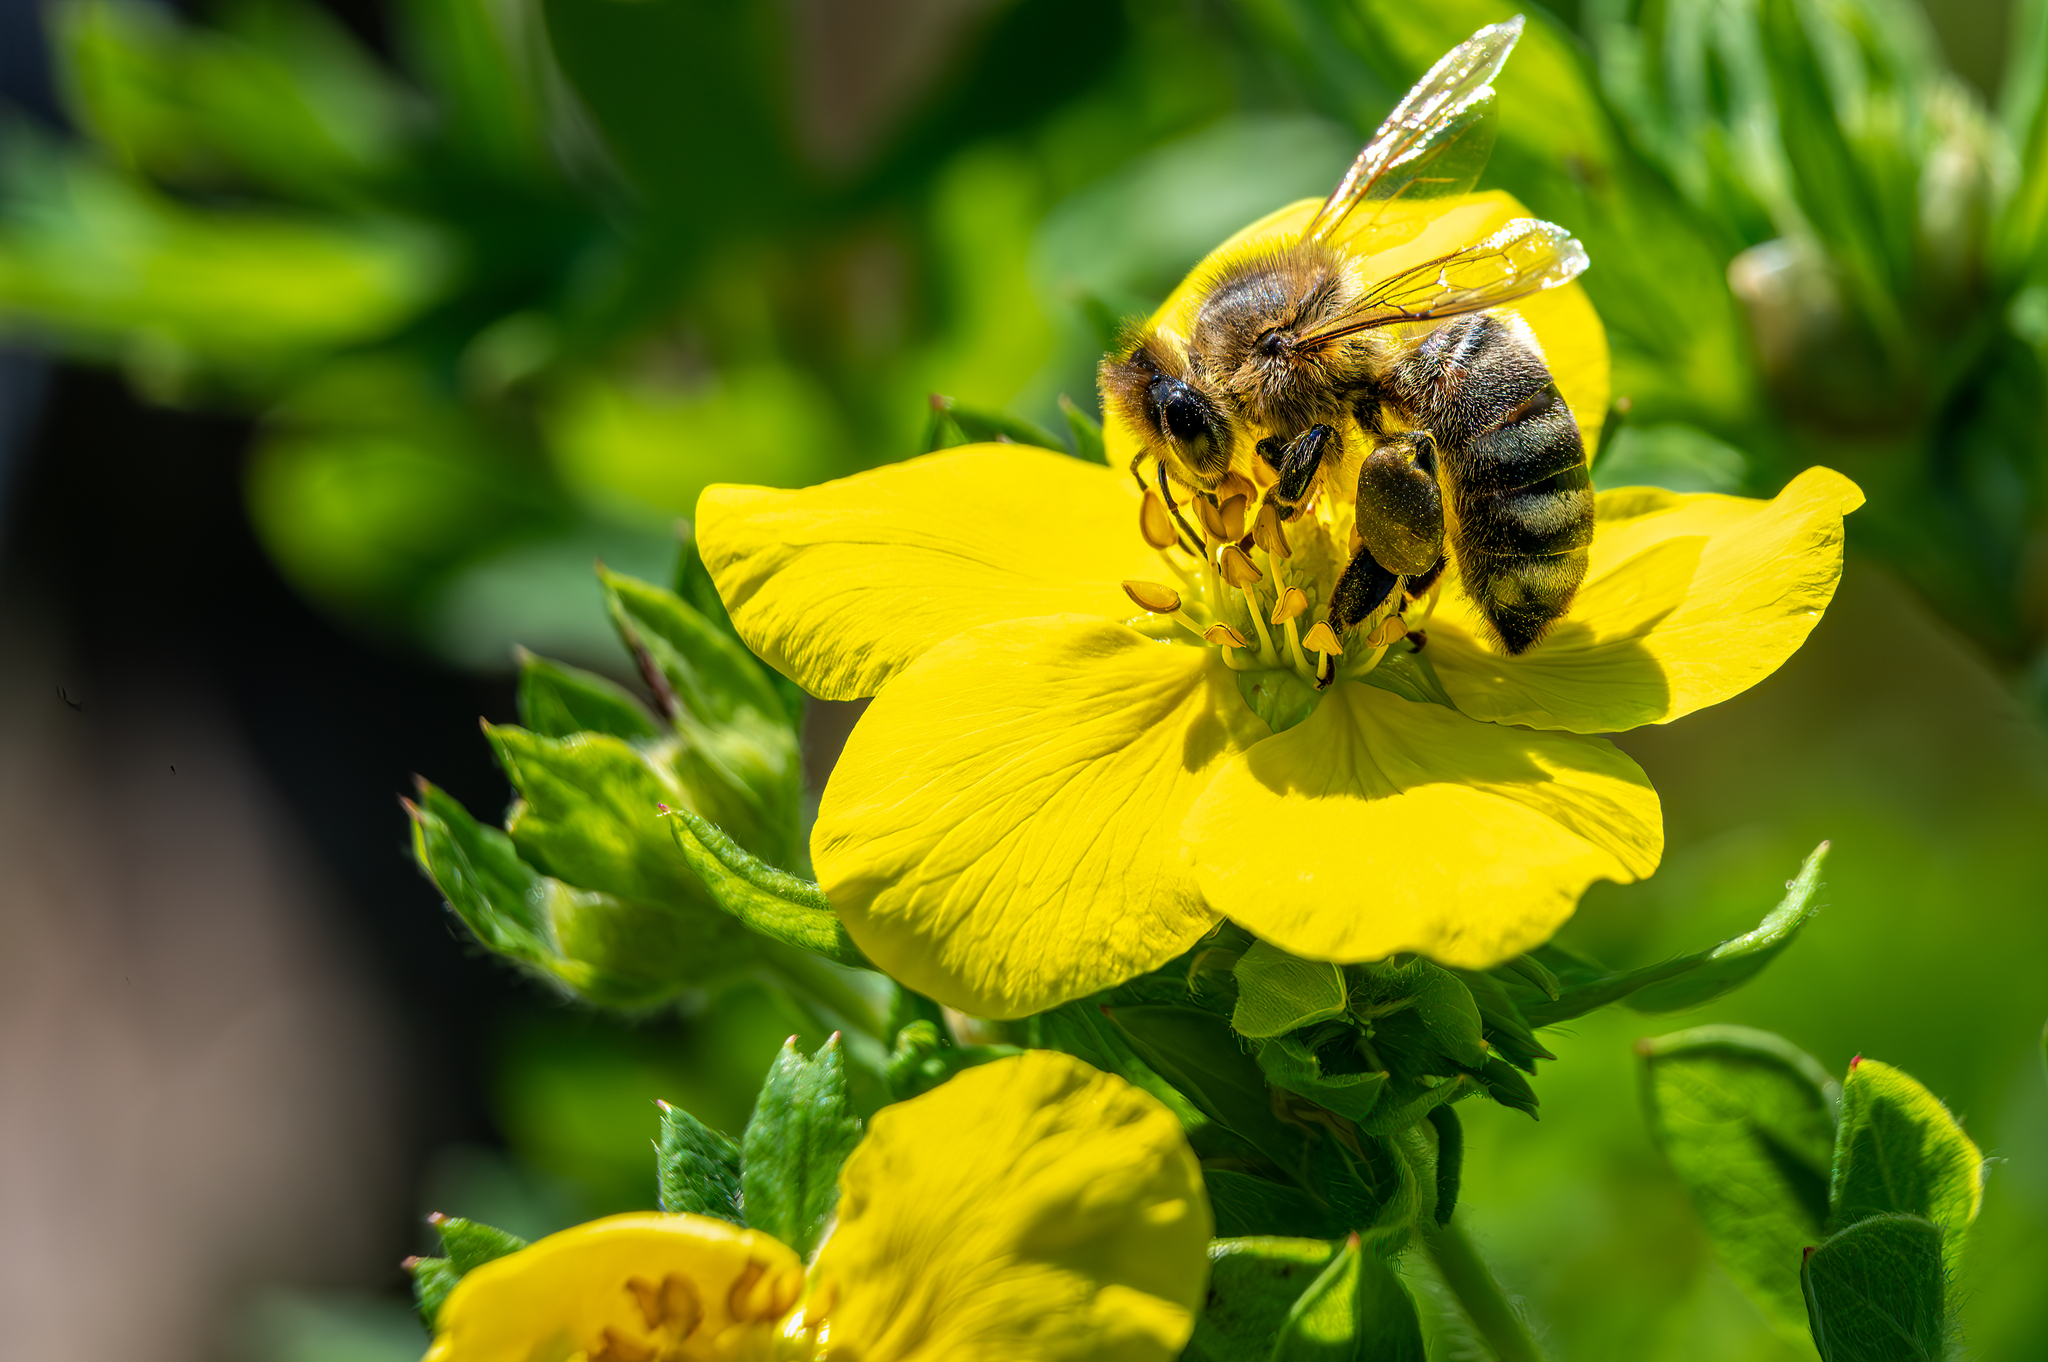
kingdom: Animalia
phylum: Arthropoda
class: Insecta
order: Hymenoptera
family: Apidae
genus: Apis
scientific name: Apis mellifera
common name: Honey bee
